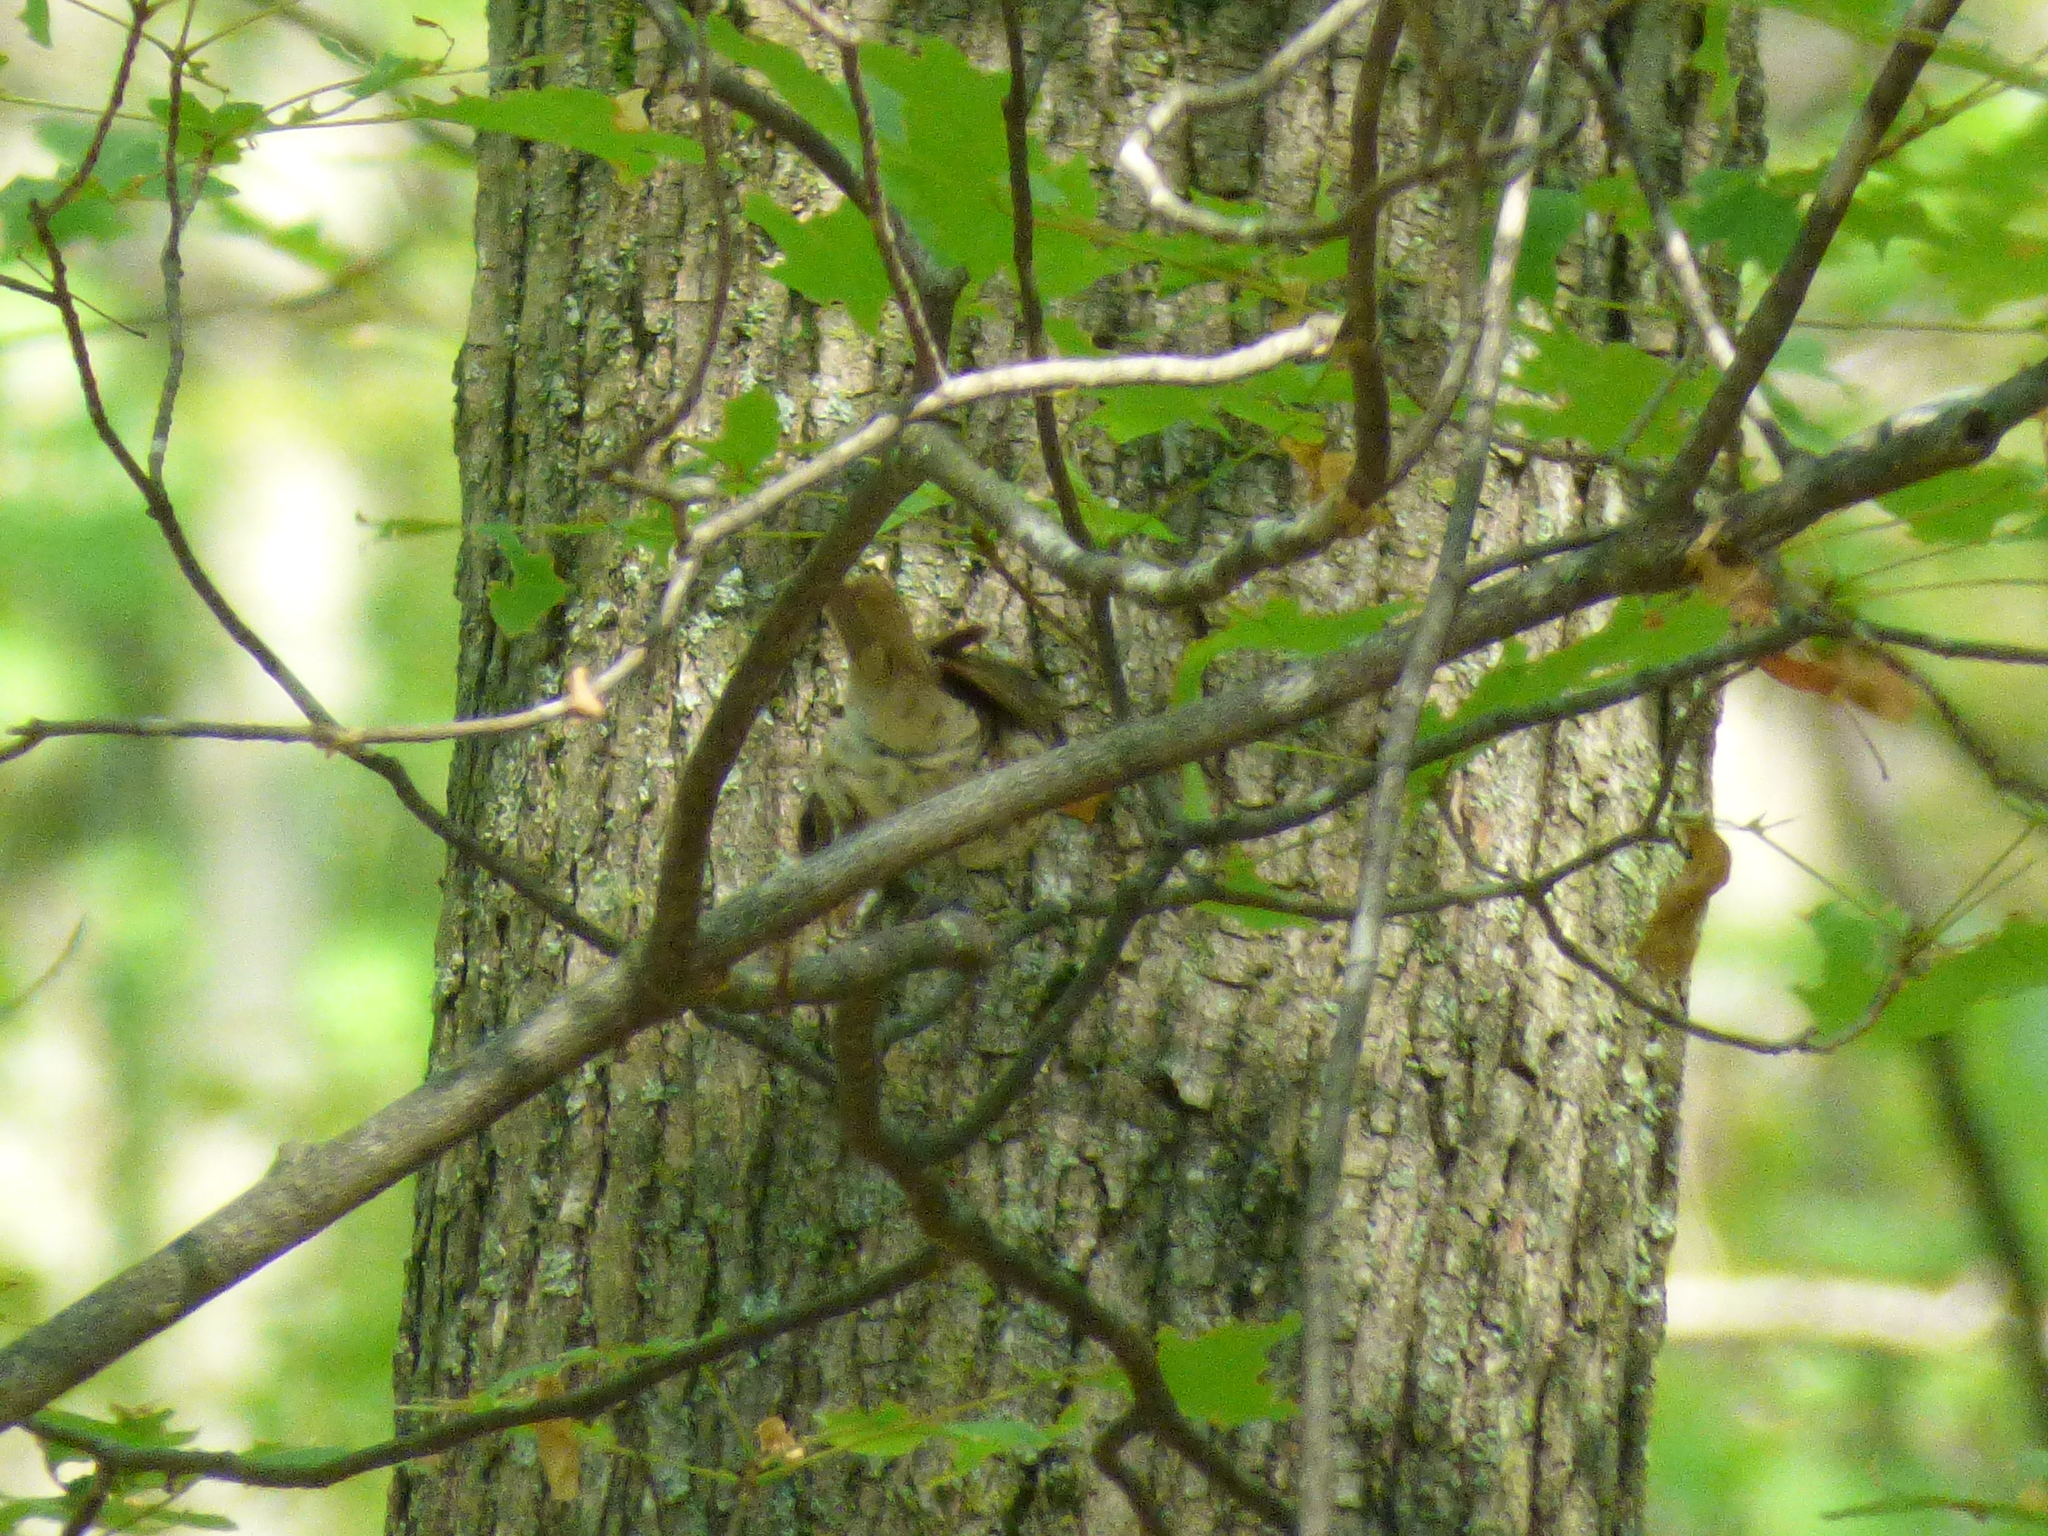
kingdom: Animalia
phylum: Chordata
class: Aves
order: Passeriformes
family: Cardinalidae
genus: Pheucticus
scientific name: Pheucticus ludovicianus
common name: Rose-breasted grosbeak
